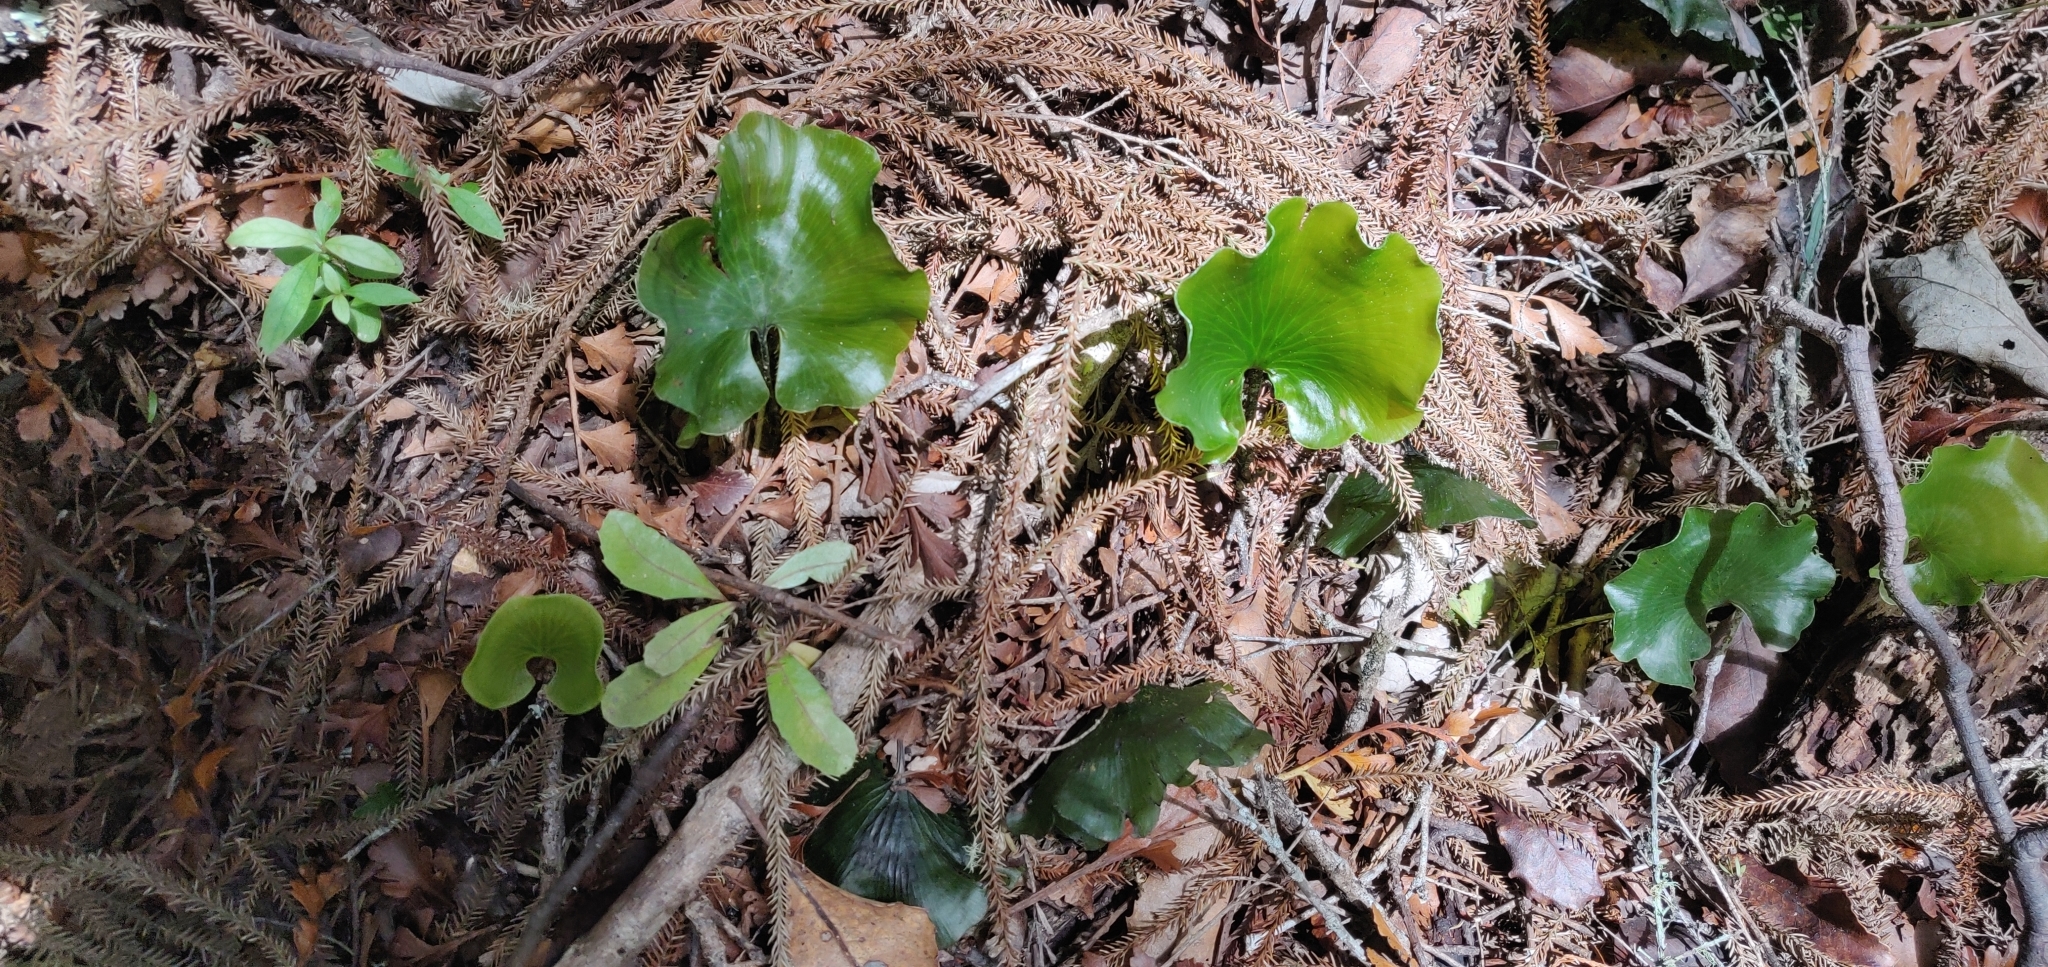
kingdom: Plantae
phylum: Tracheophyta
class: Polypodiopsida
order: Hymenophyllales
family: Hymenophyllaceae
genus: Hymenophyllum
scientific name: Hymenophyllum nephrophyllum
